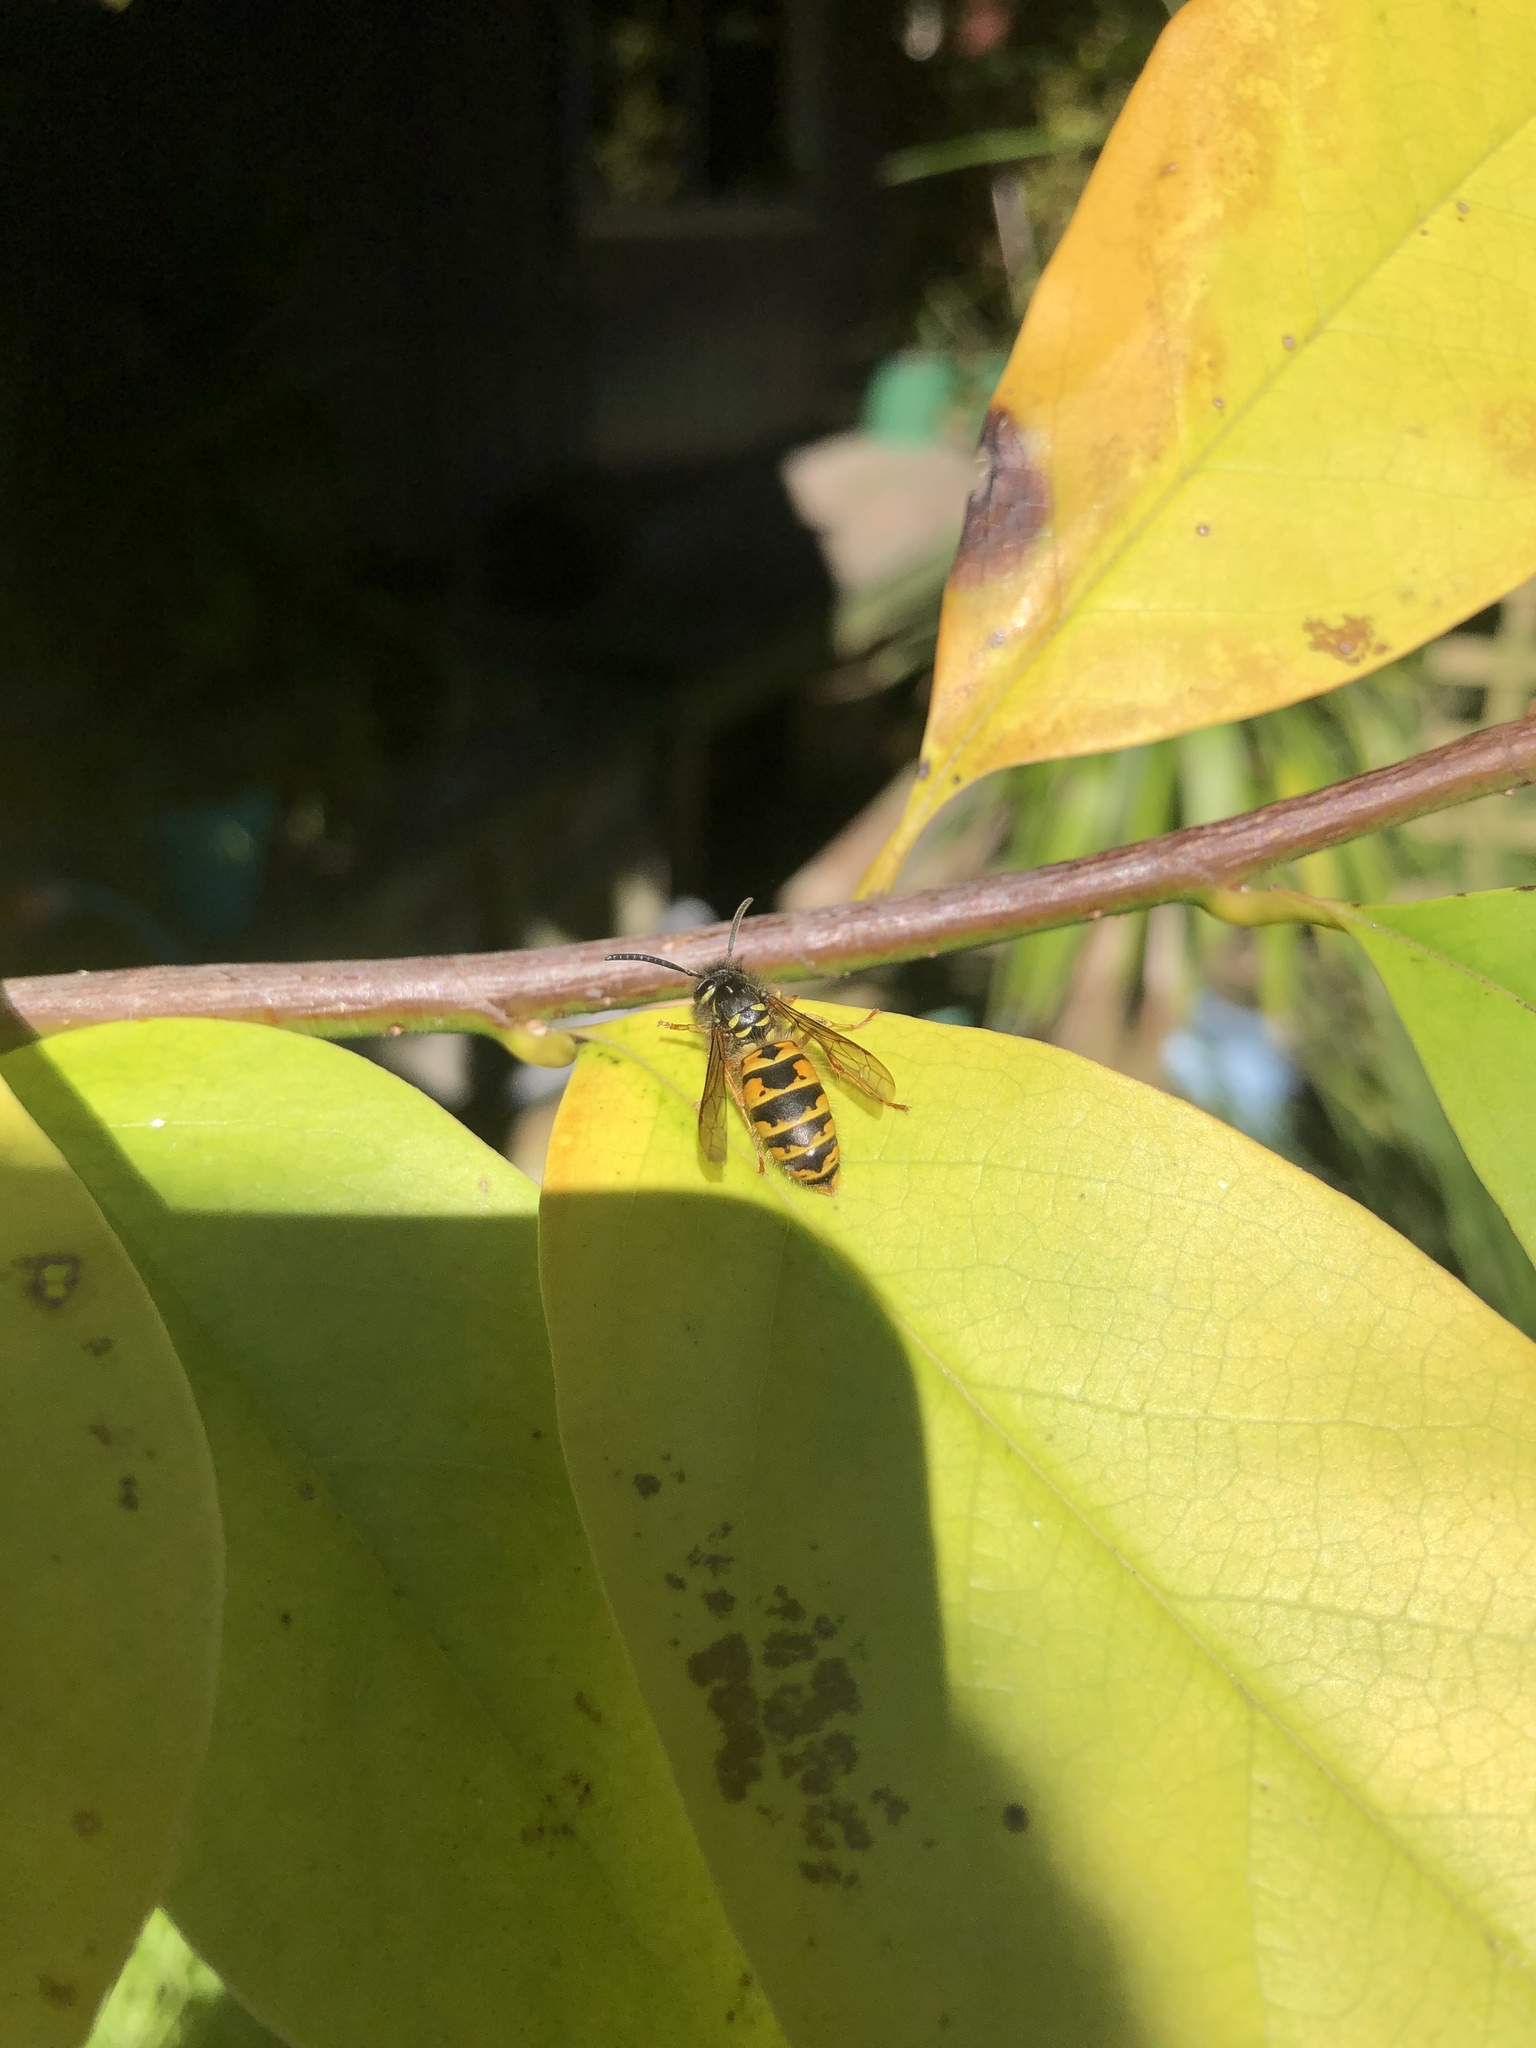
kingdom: Animalia
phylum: Arthropoda
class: Insecta
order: Hymenoptera
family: Vespidae
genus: Vespula
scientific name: Vespula vulgaris
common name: Common wasp
